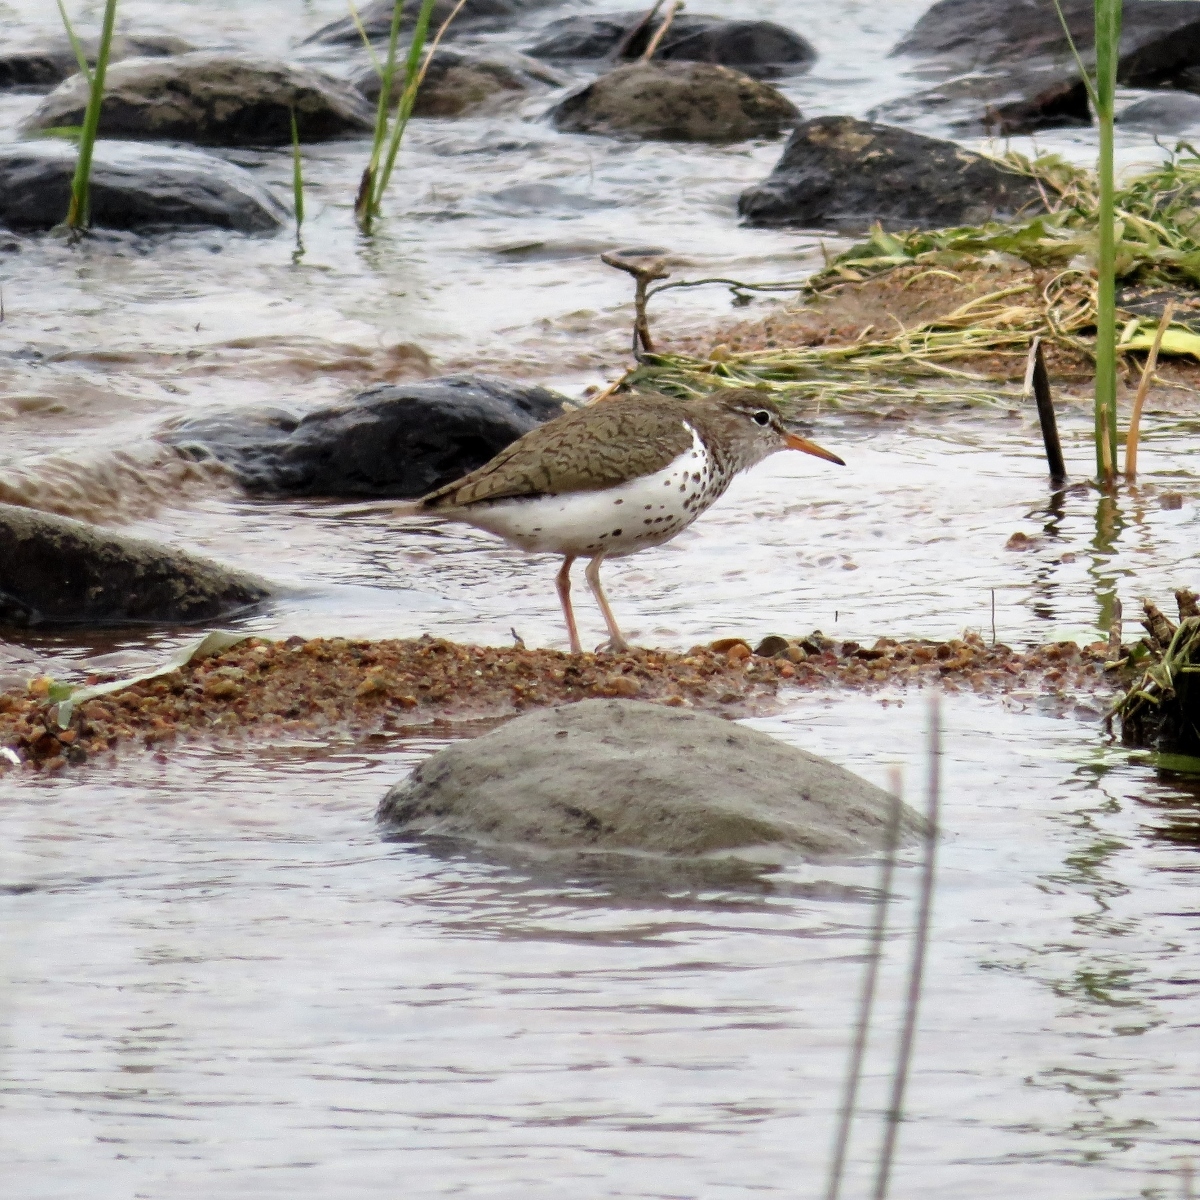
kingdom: Animalia
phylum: Chordata
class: Aves
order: Charadriiformes
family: Scolopacidae
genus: Actitis
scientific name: Actitis macularius
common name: Spotted sandpiper
